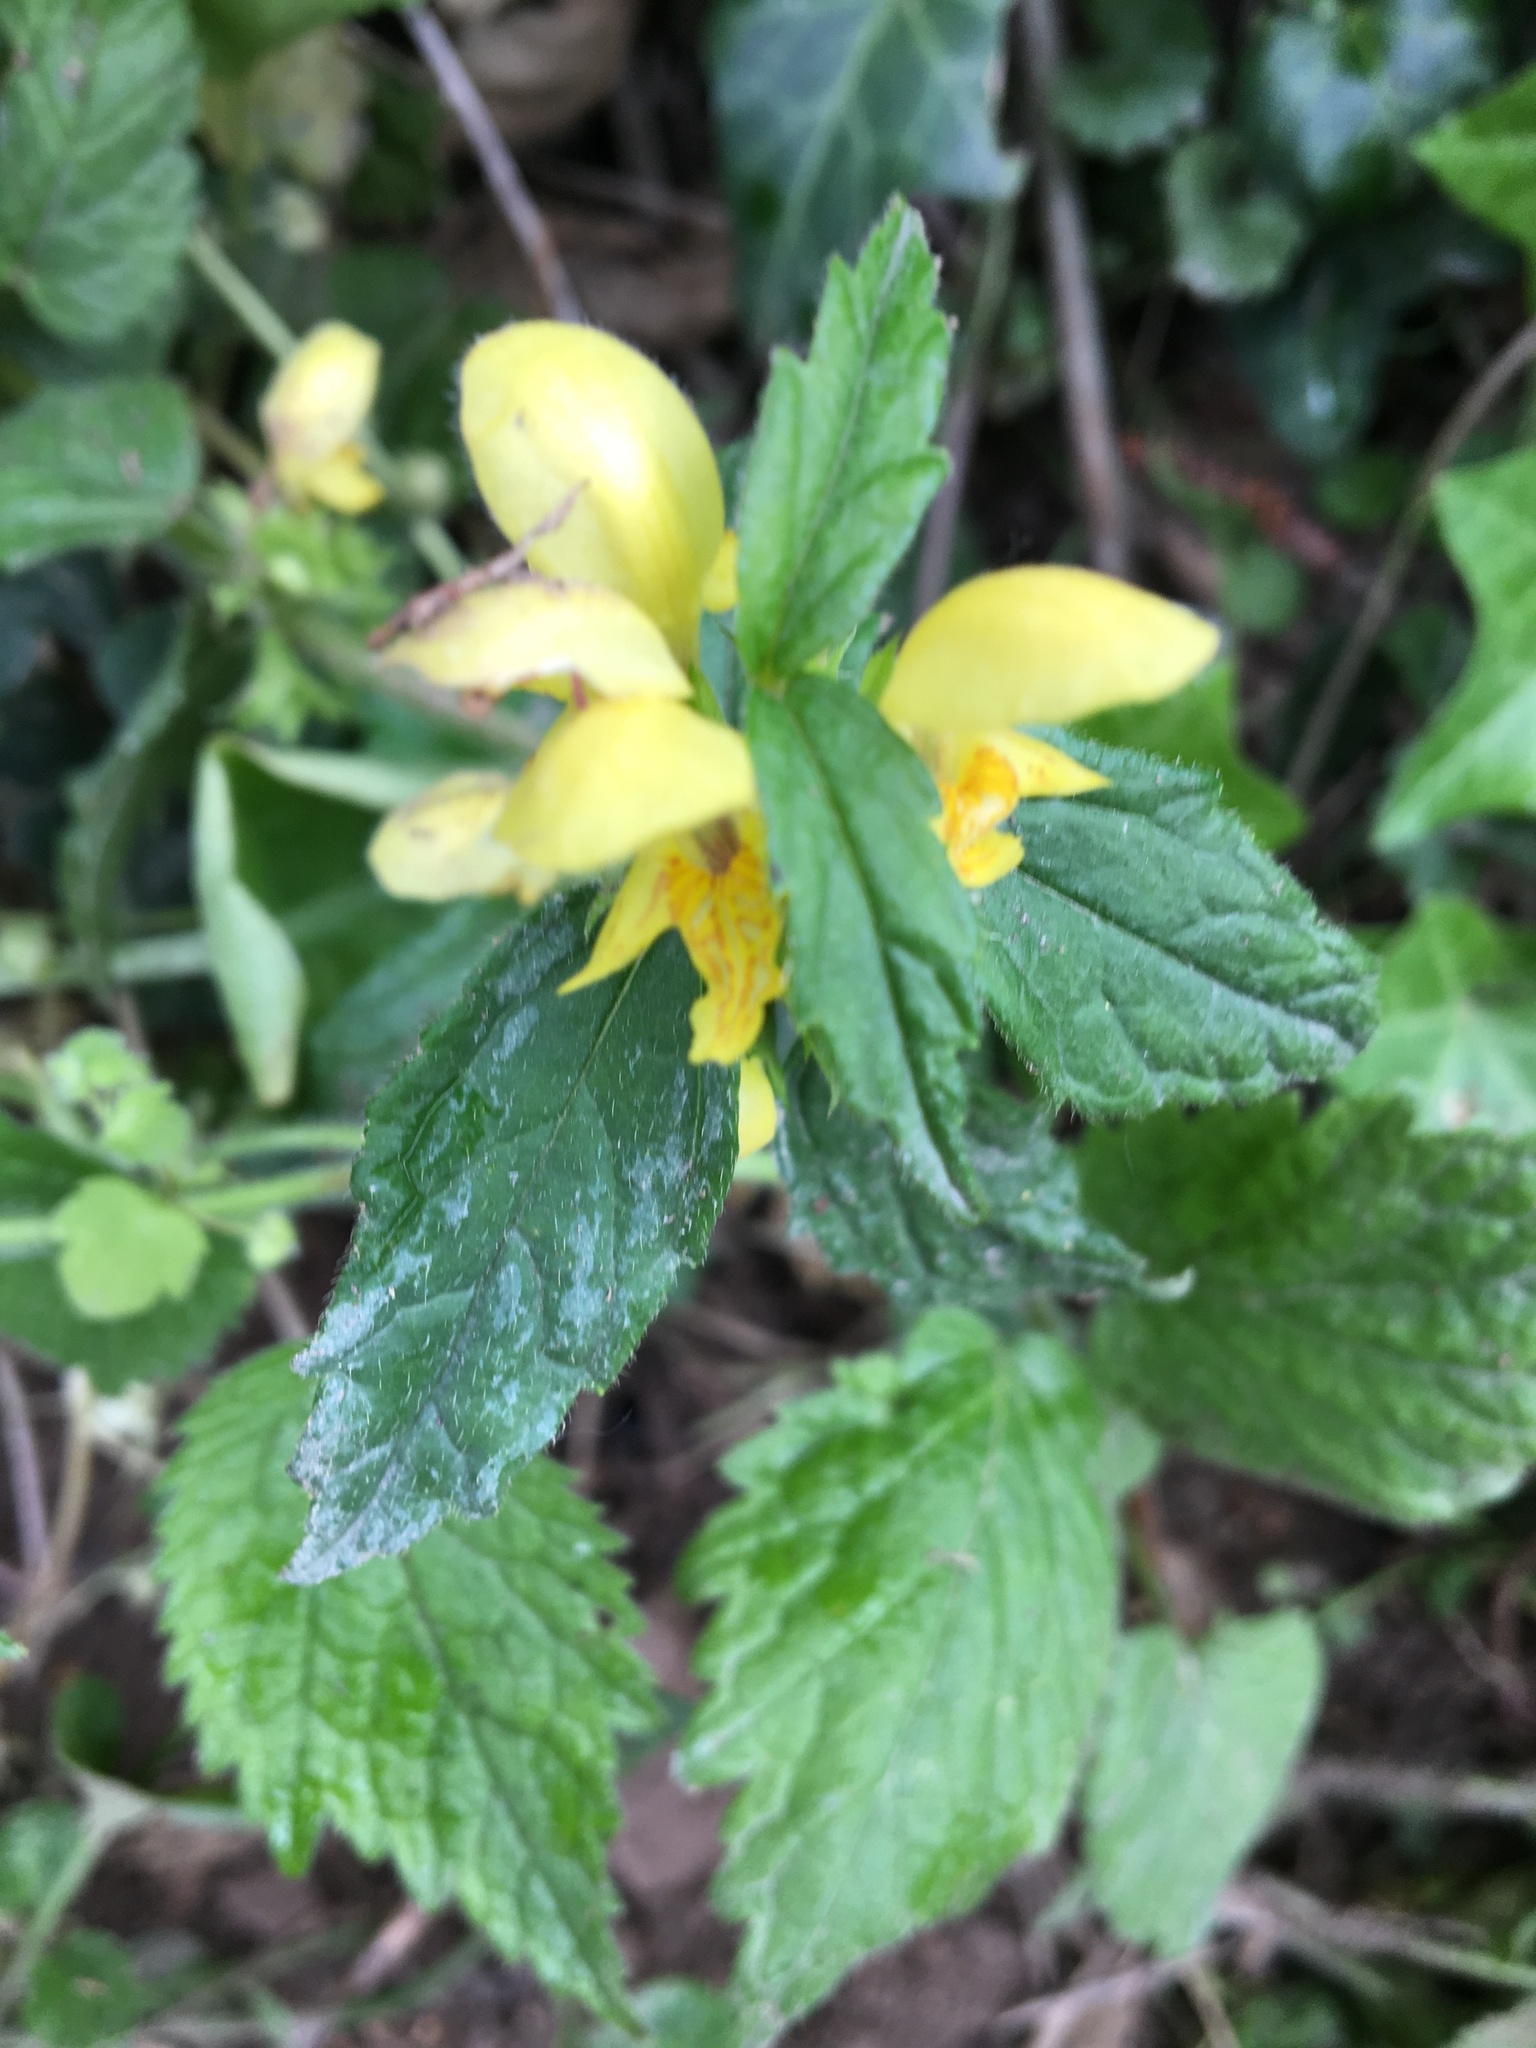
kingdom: Plantae
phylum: Tracheophyta
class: Magnoliopsida
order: Lamiales
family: Lamiaceae
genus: Lamium
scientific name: Lamium galeobdolon
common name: Yellow archangel
